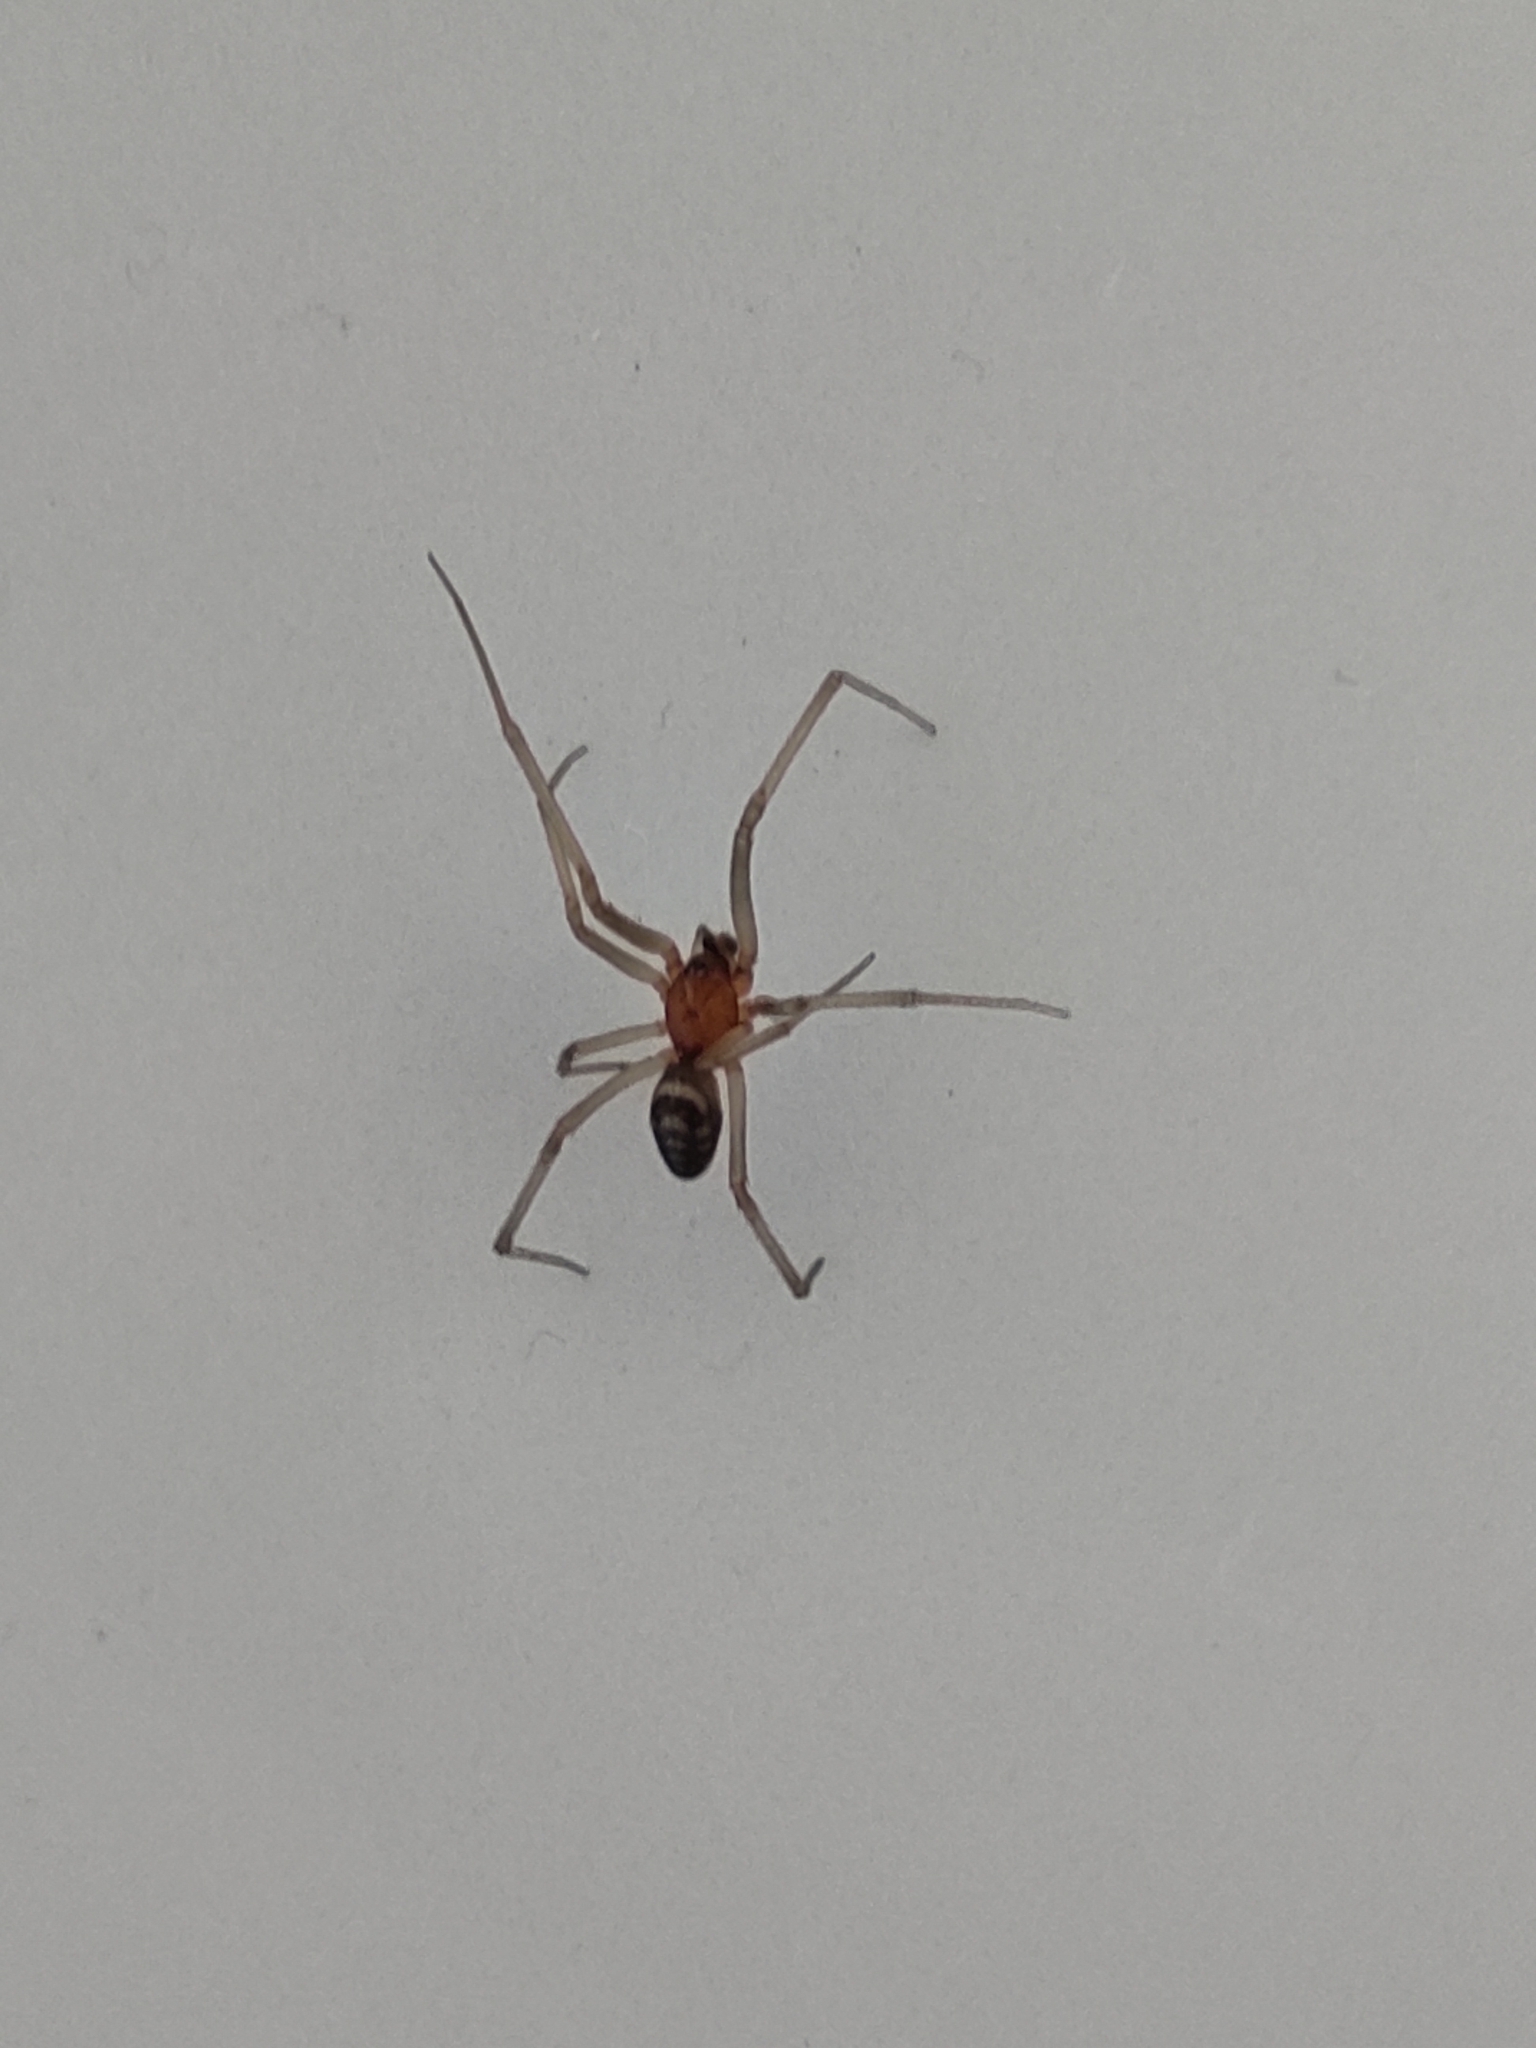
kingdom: Animalia
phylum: Arthropoda
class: Arachnida
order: Araneae
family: Theridiidae
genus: Steatoda
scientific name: Steatoda grossa
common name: False black widow
